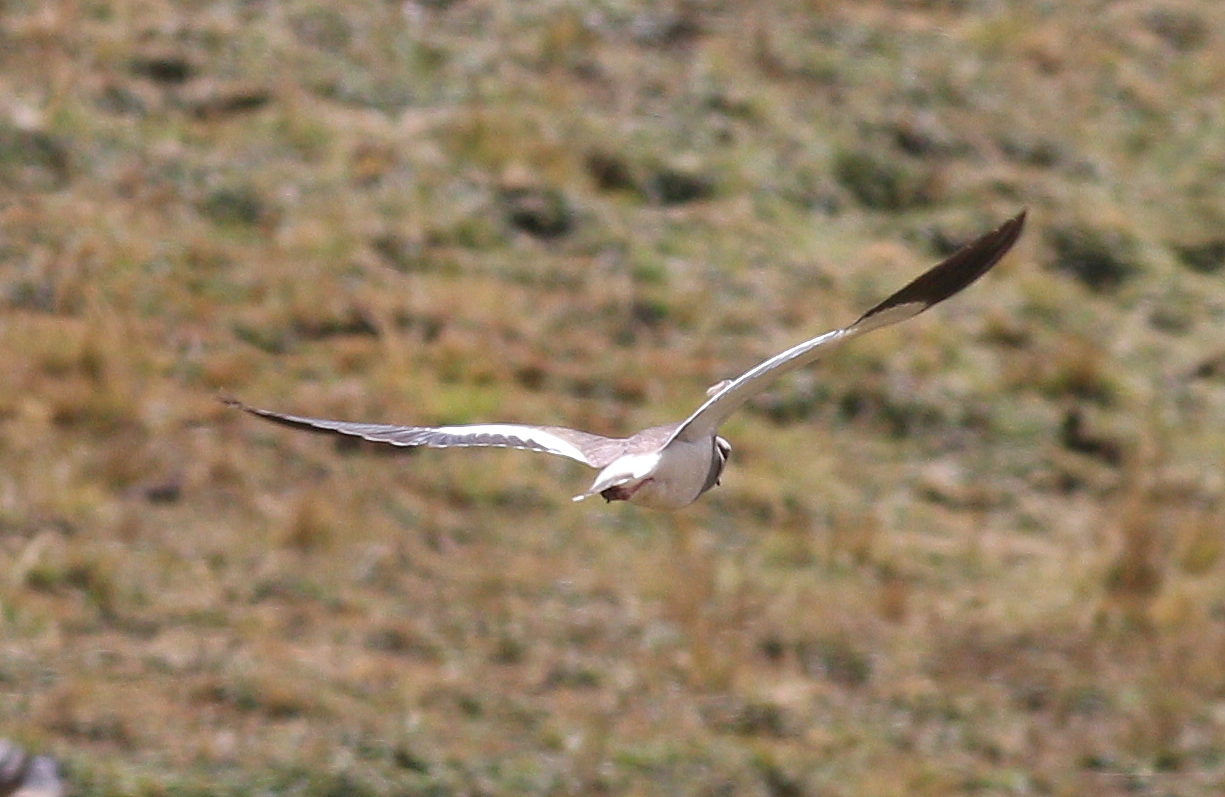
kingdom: Animalia
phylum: Chordata
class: Aves
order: Charadriiformes
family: Charadriidae
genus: Vanellus
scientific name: Vanellus resplendens
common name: Andean lapwing
